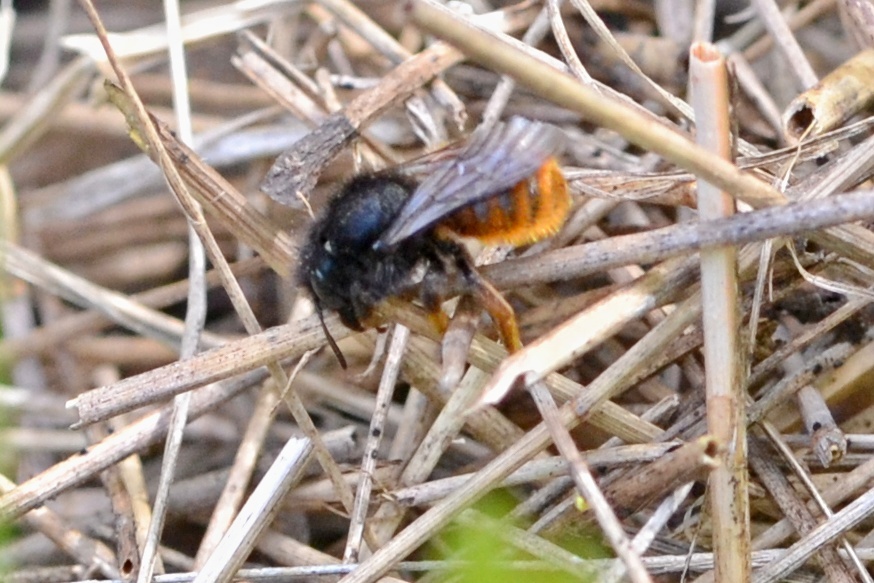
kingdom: Animalia
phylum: Arthropoda
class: Insecta
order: Hymenoptera
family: Megachilidae
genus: Osmia
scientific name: Osmia bicolor
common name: Red-tailed mason bee
